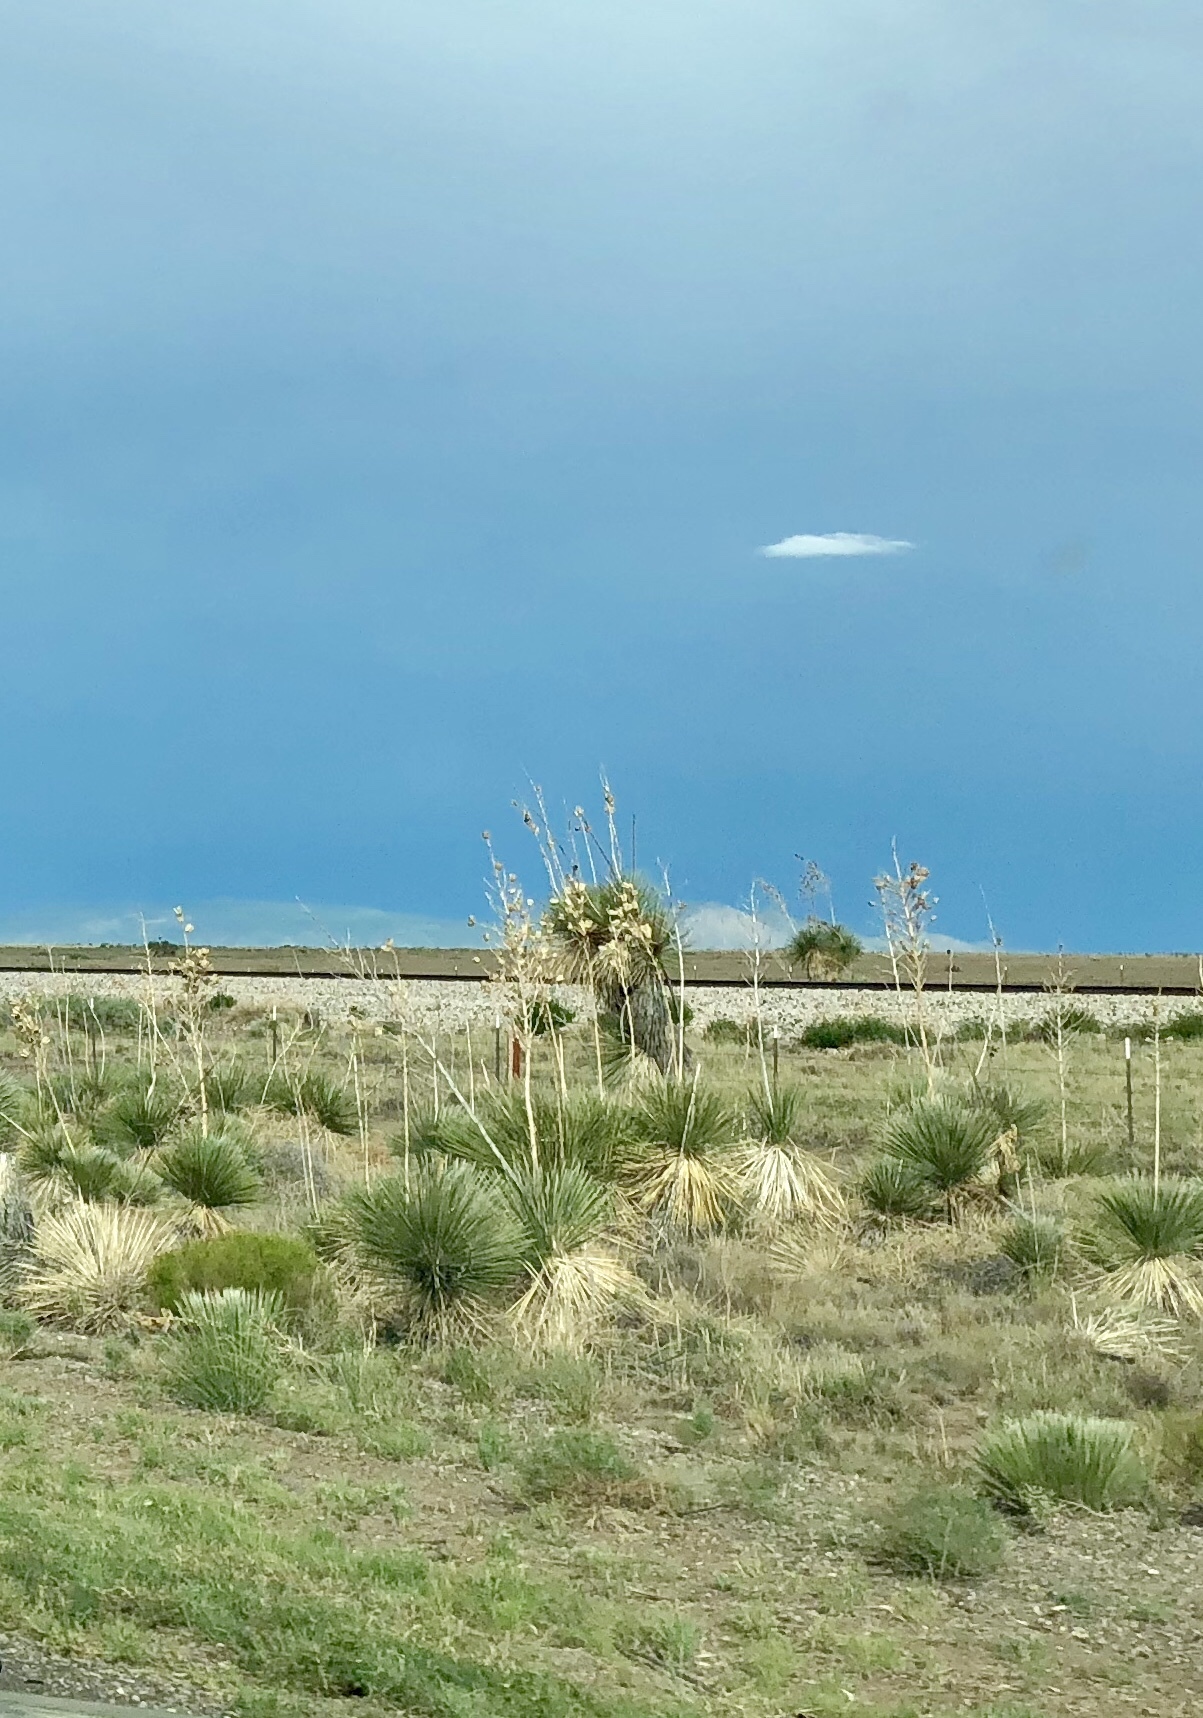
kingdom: Plantae
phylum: Tracheophyta
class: Liliopsida
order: Asparagales
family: Asparagaceae
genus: Yucca
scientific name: Yucca elata
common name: Palmella
